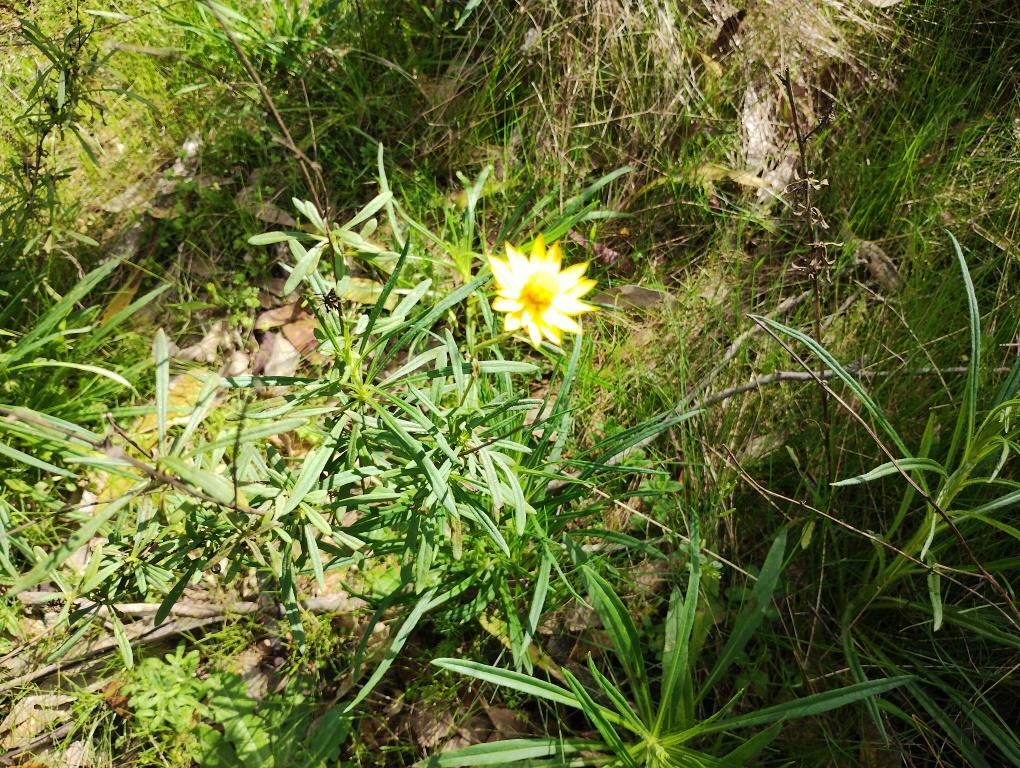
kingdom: Plantae
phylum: Tracheophyta
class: Magnoliopsida
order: Asterales
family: Asteraceae
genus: Xerochrysum
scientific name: Xerochrysum viscosum
